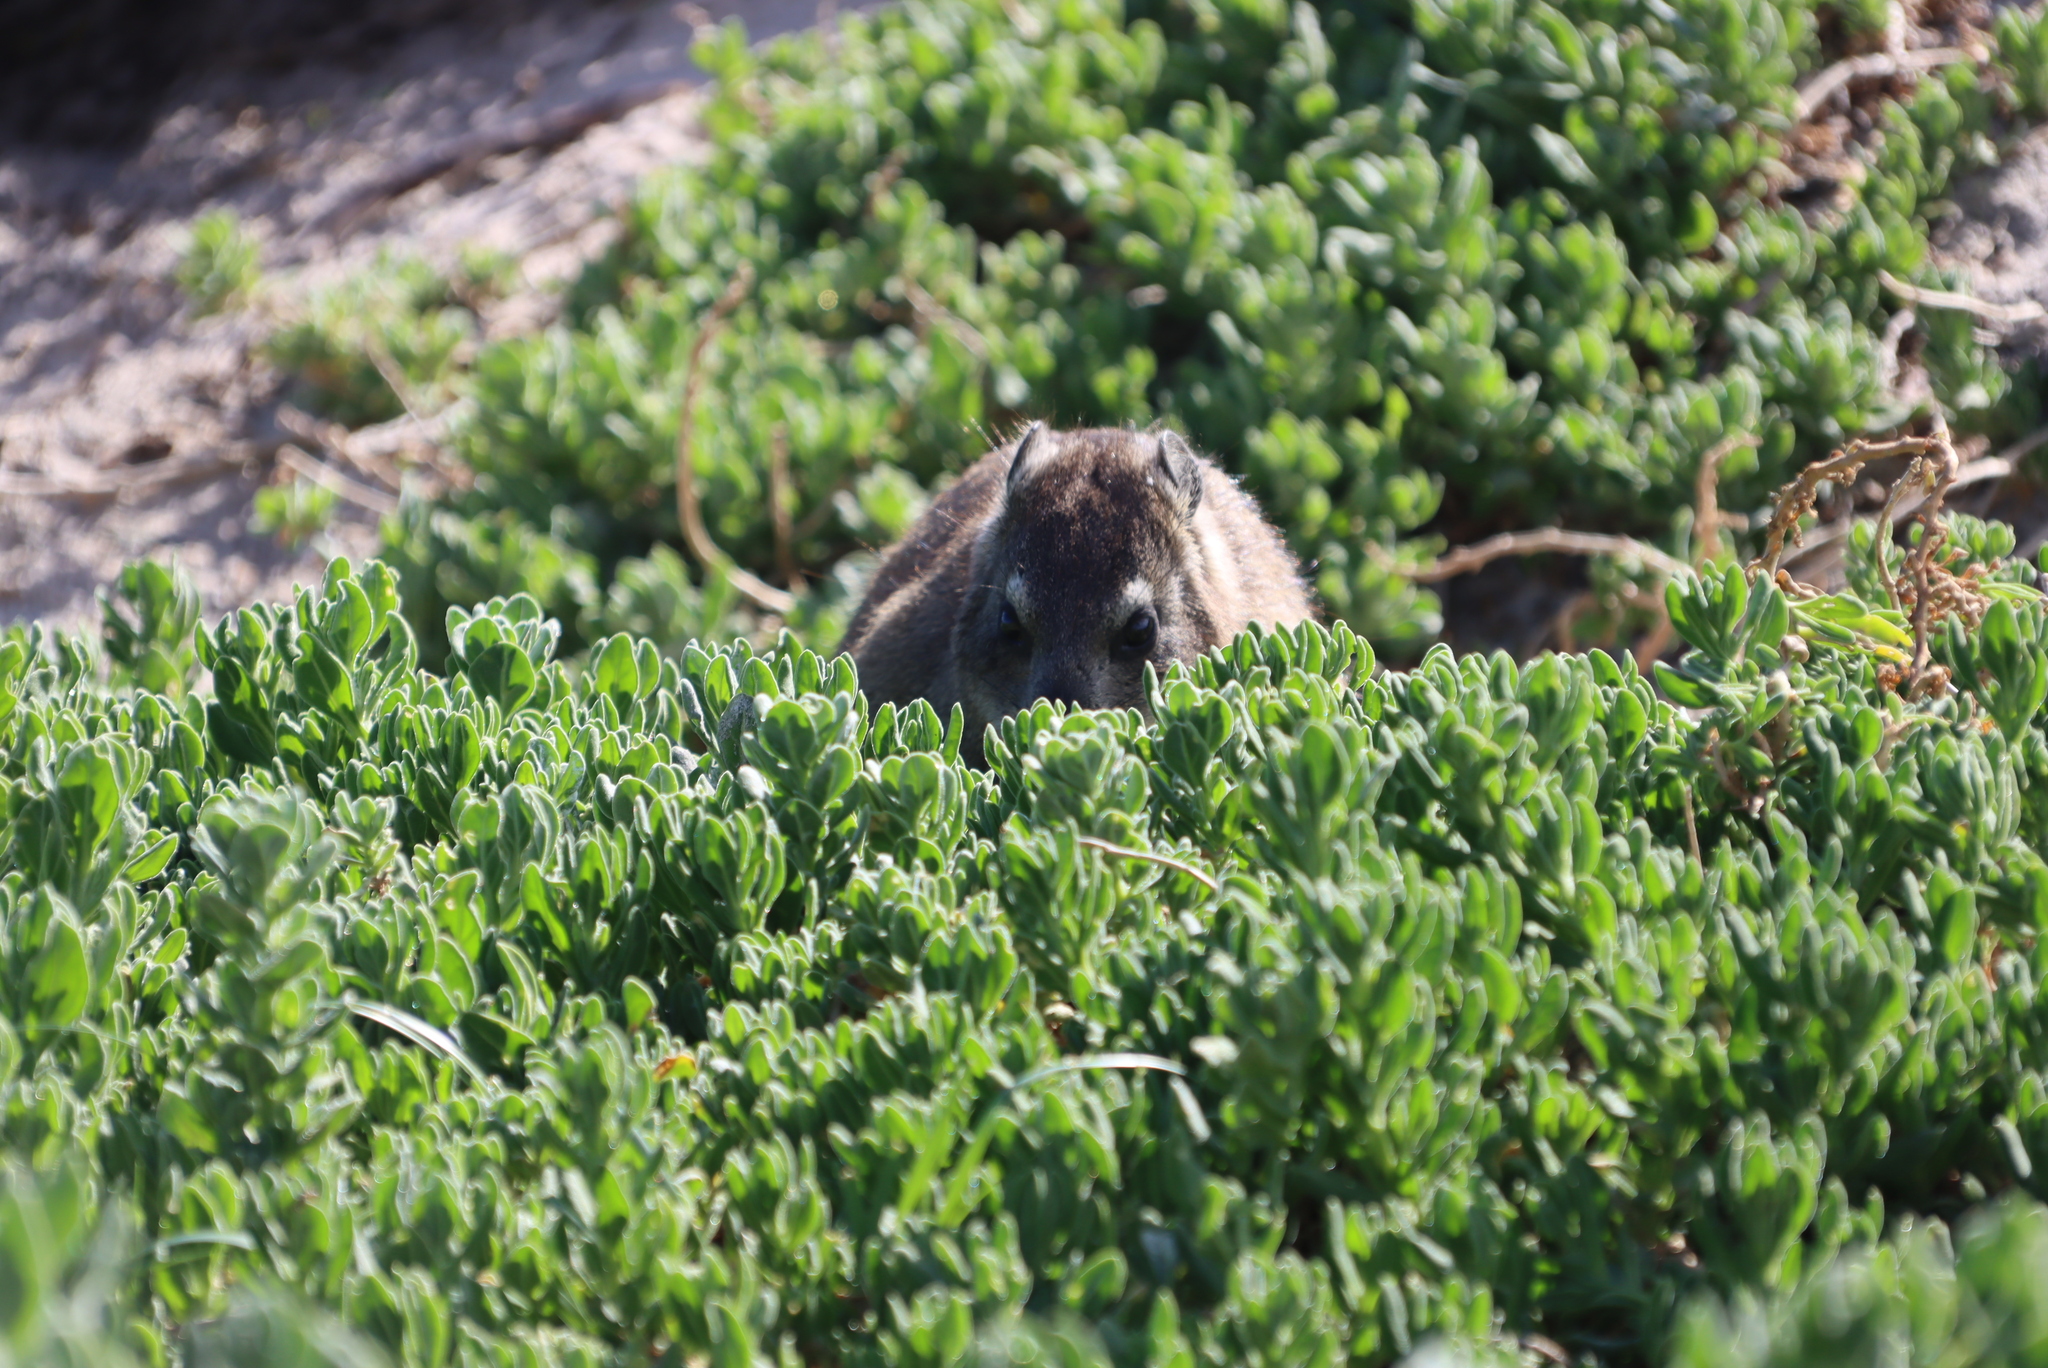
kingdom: Animalia
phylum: Chordata
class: Mammalia
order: Hyracoidea
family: Procaviidae
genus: Procavia
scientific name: Procavia capensis
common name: Rock hyrax
